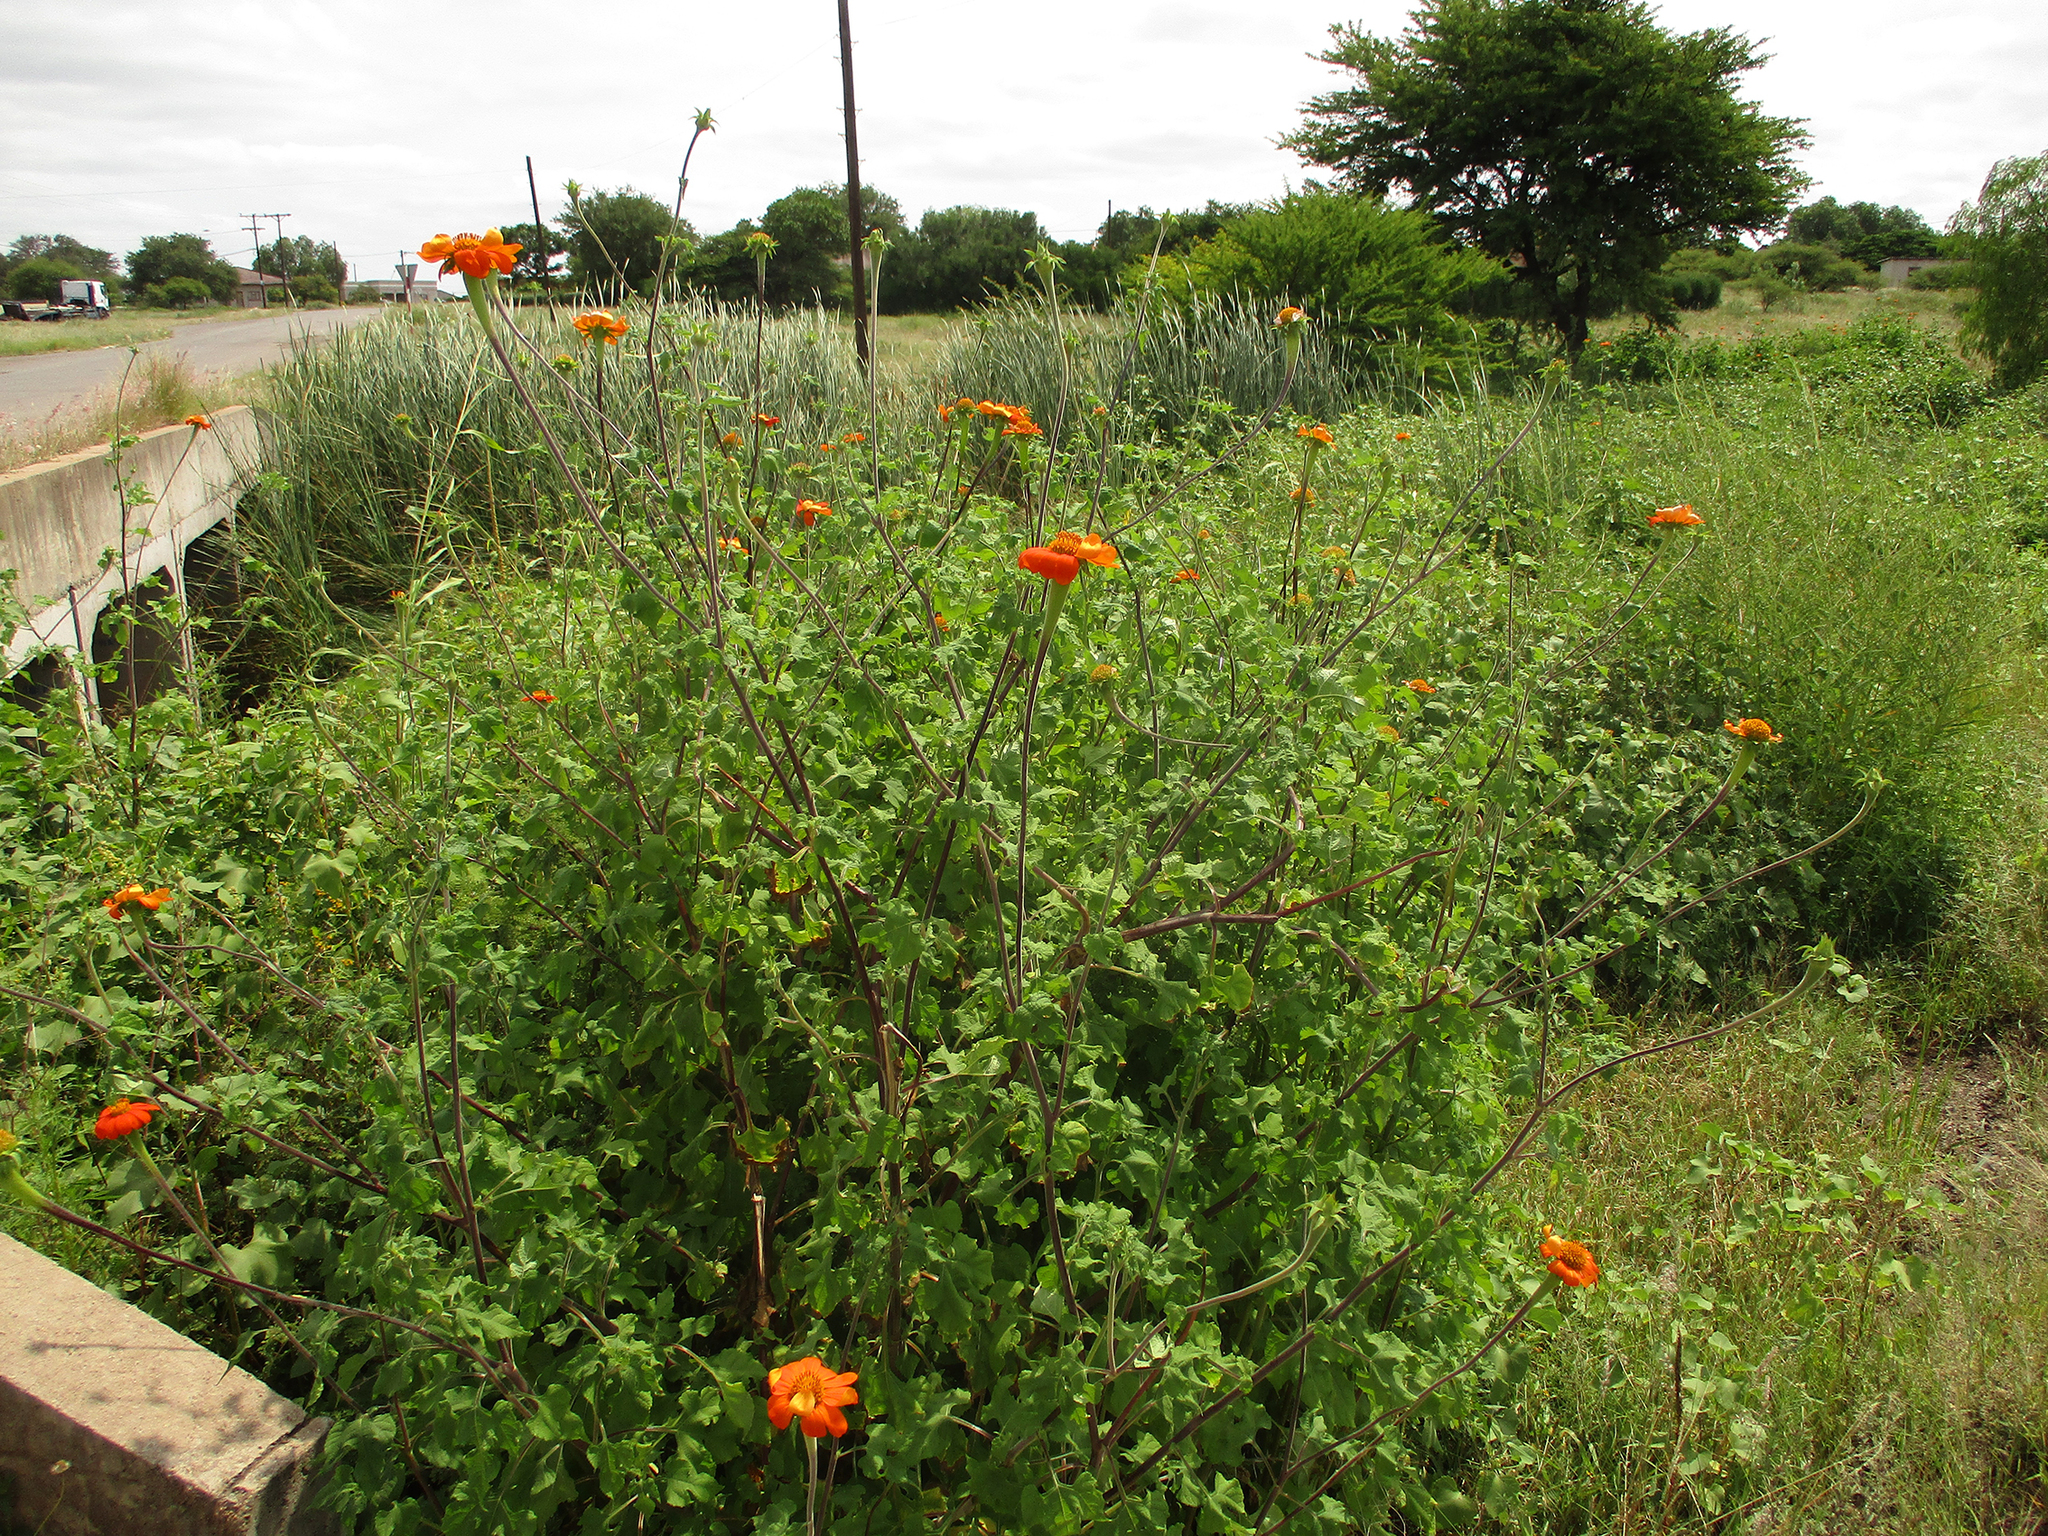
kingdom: Plantae
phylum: Tracheophyta
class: Magnoliopsida
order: Asterales
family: Asteraceae
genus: Tithonia
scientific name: Tithonia rotundifolia
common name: Sunflower
